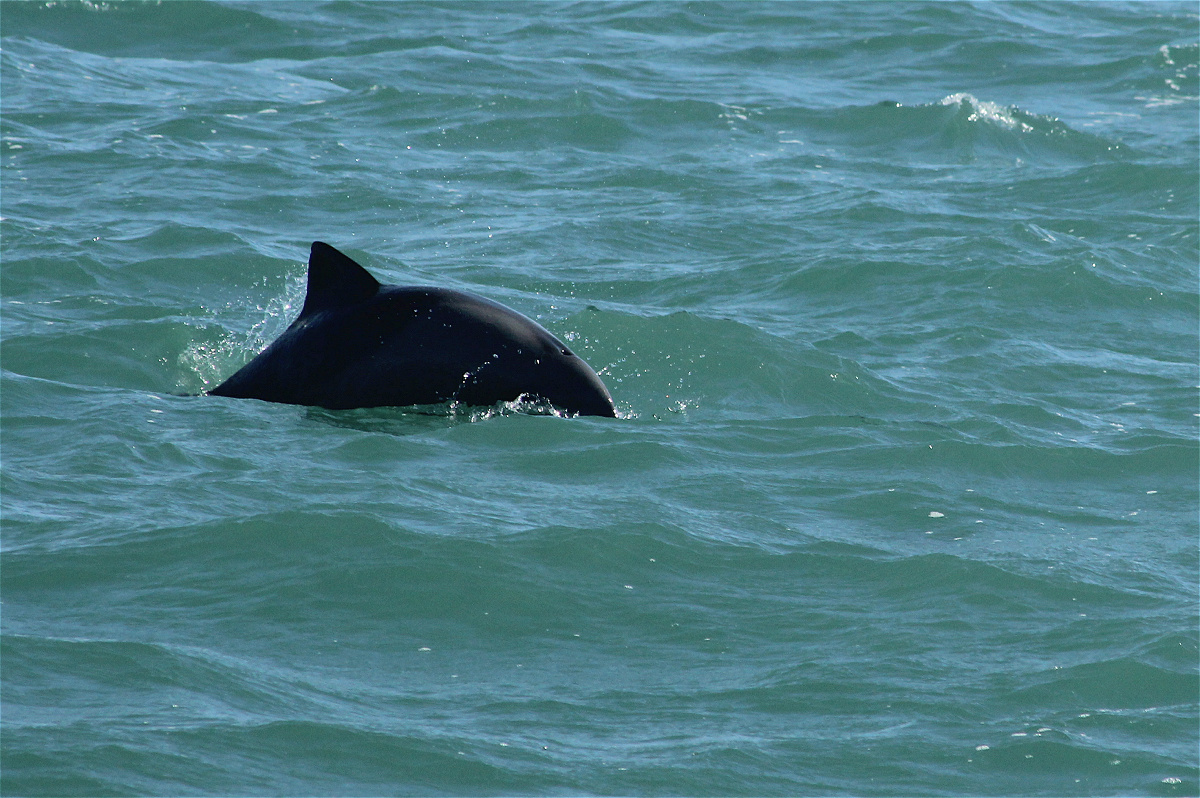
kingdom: Animalia
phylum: Chordata
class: Mammalia
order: Cetacea
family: Delphinidae
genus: Cephalorhynchus
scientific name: Cephalorhynchus heavisidii
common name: Haviside's dolphin
